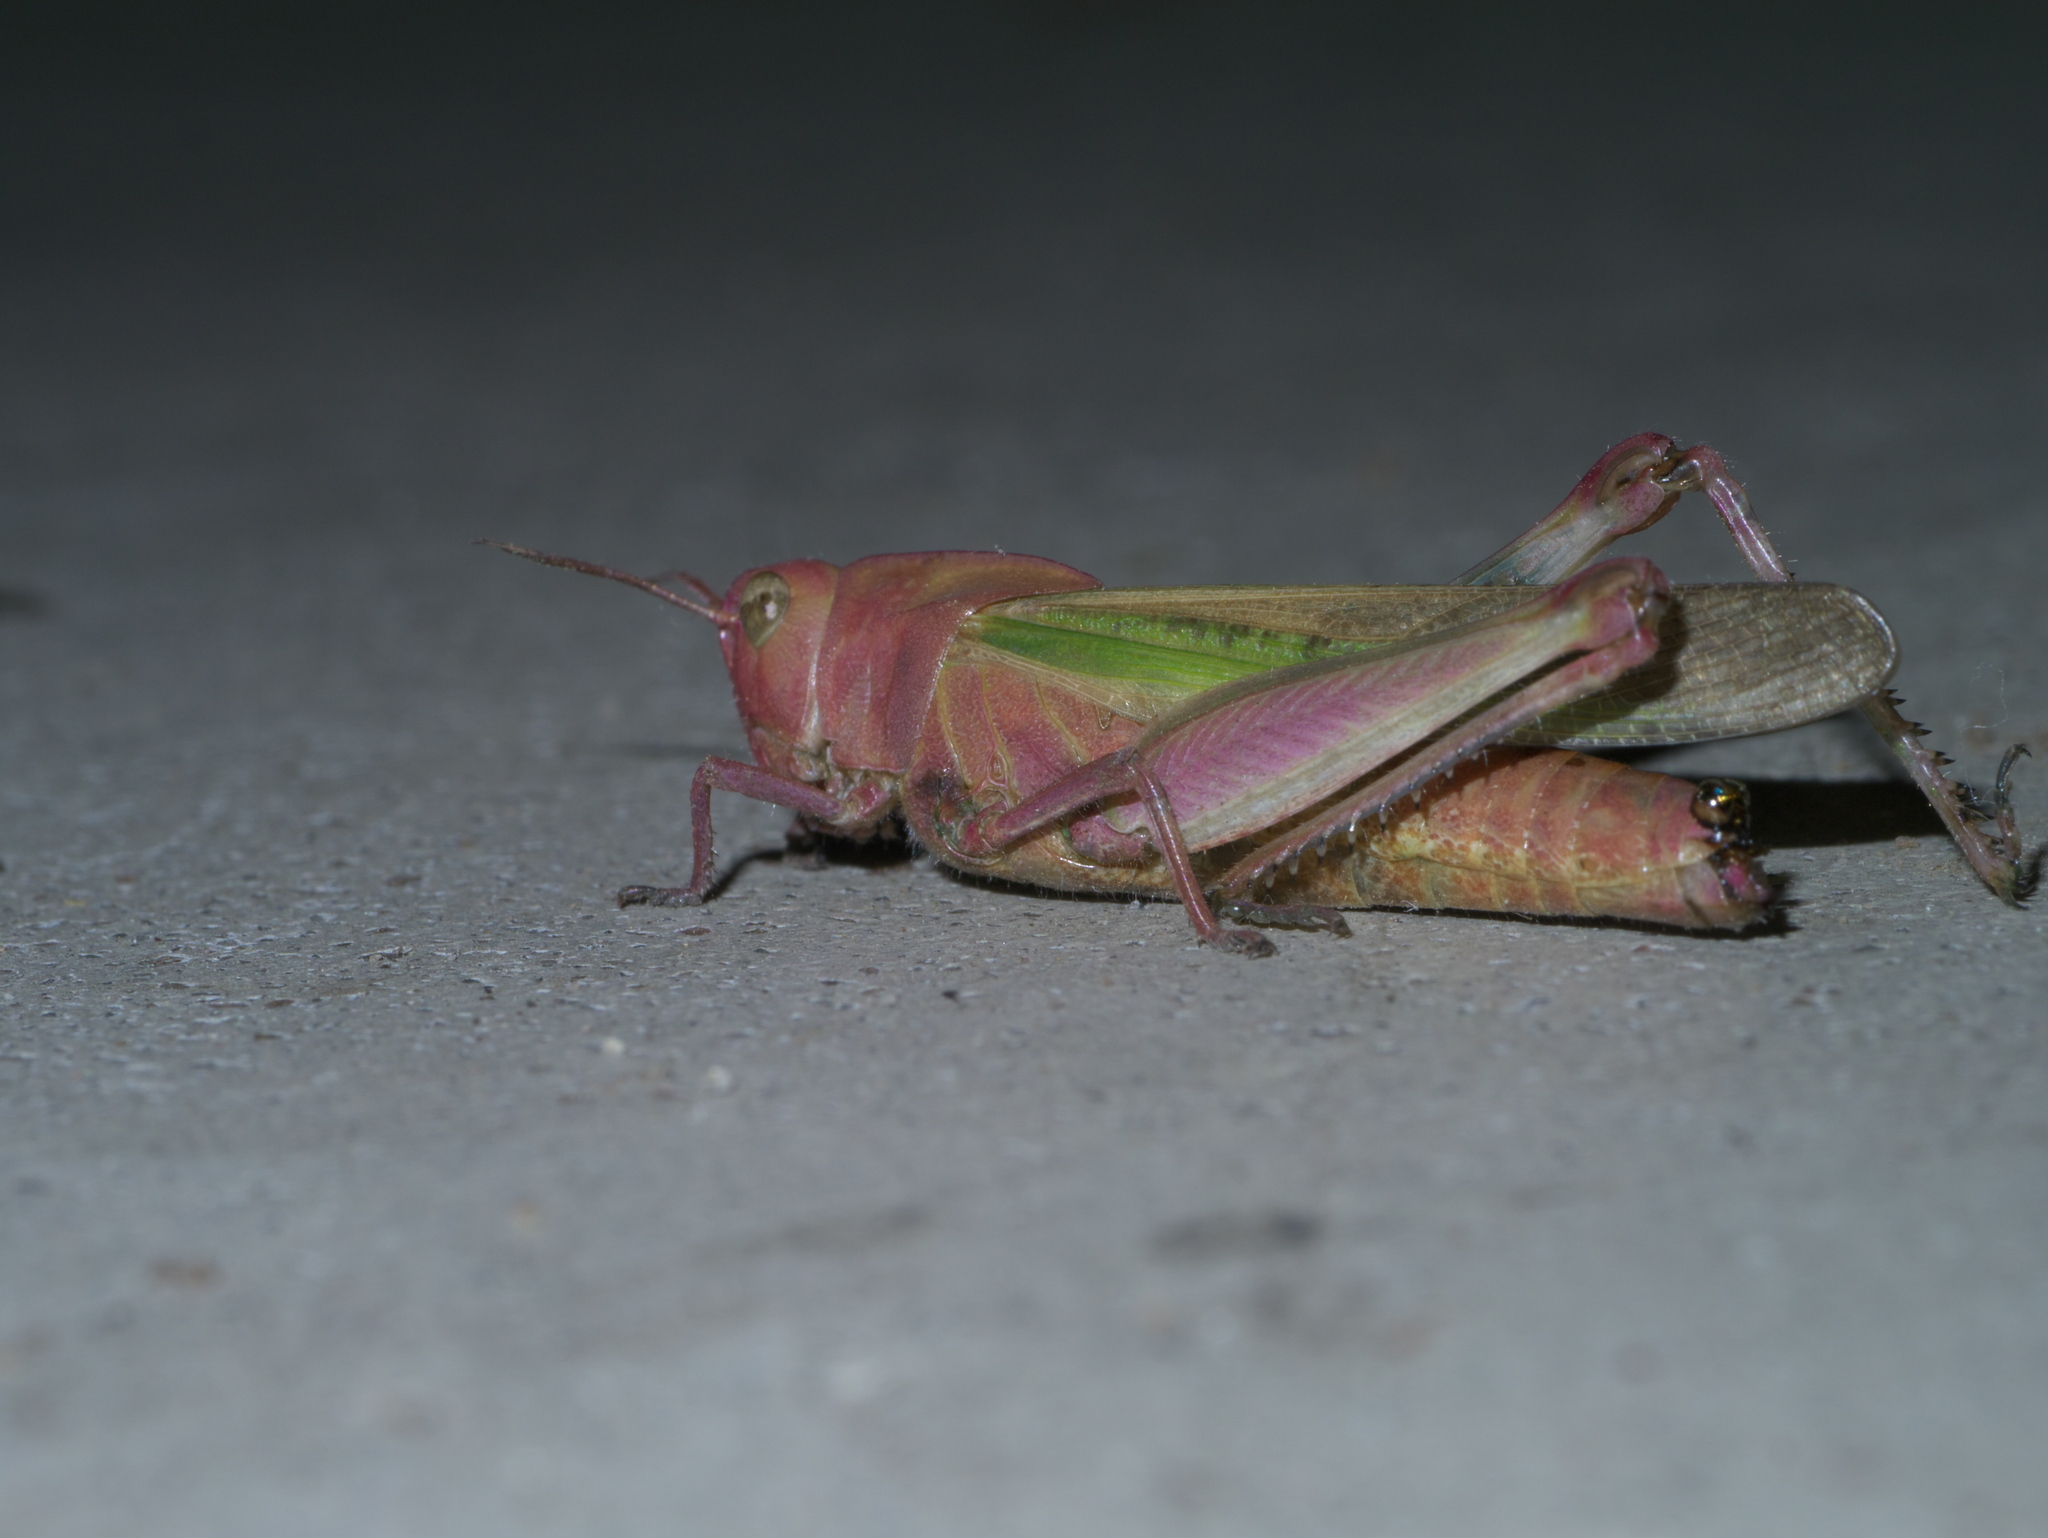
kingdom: Animalia
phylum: Arthropoda
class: Insecta
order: Orthoptera
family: Acrididae
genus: Chortophaga
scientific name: Chortophaga viridifasciata
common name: Green-striped grasshopper
